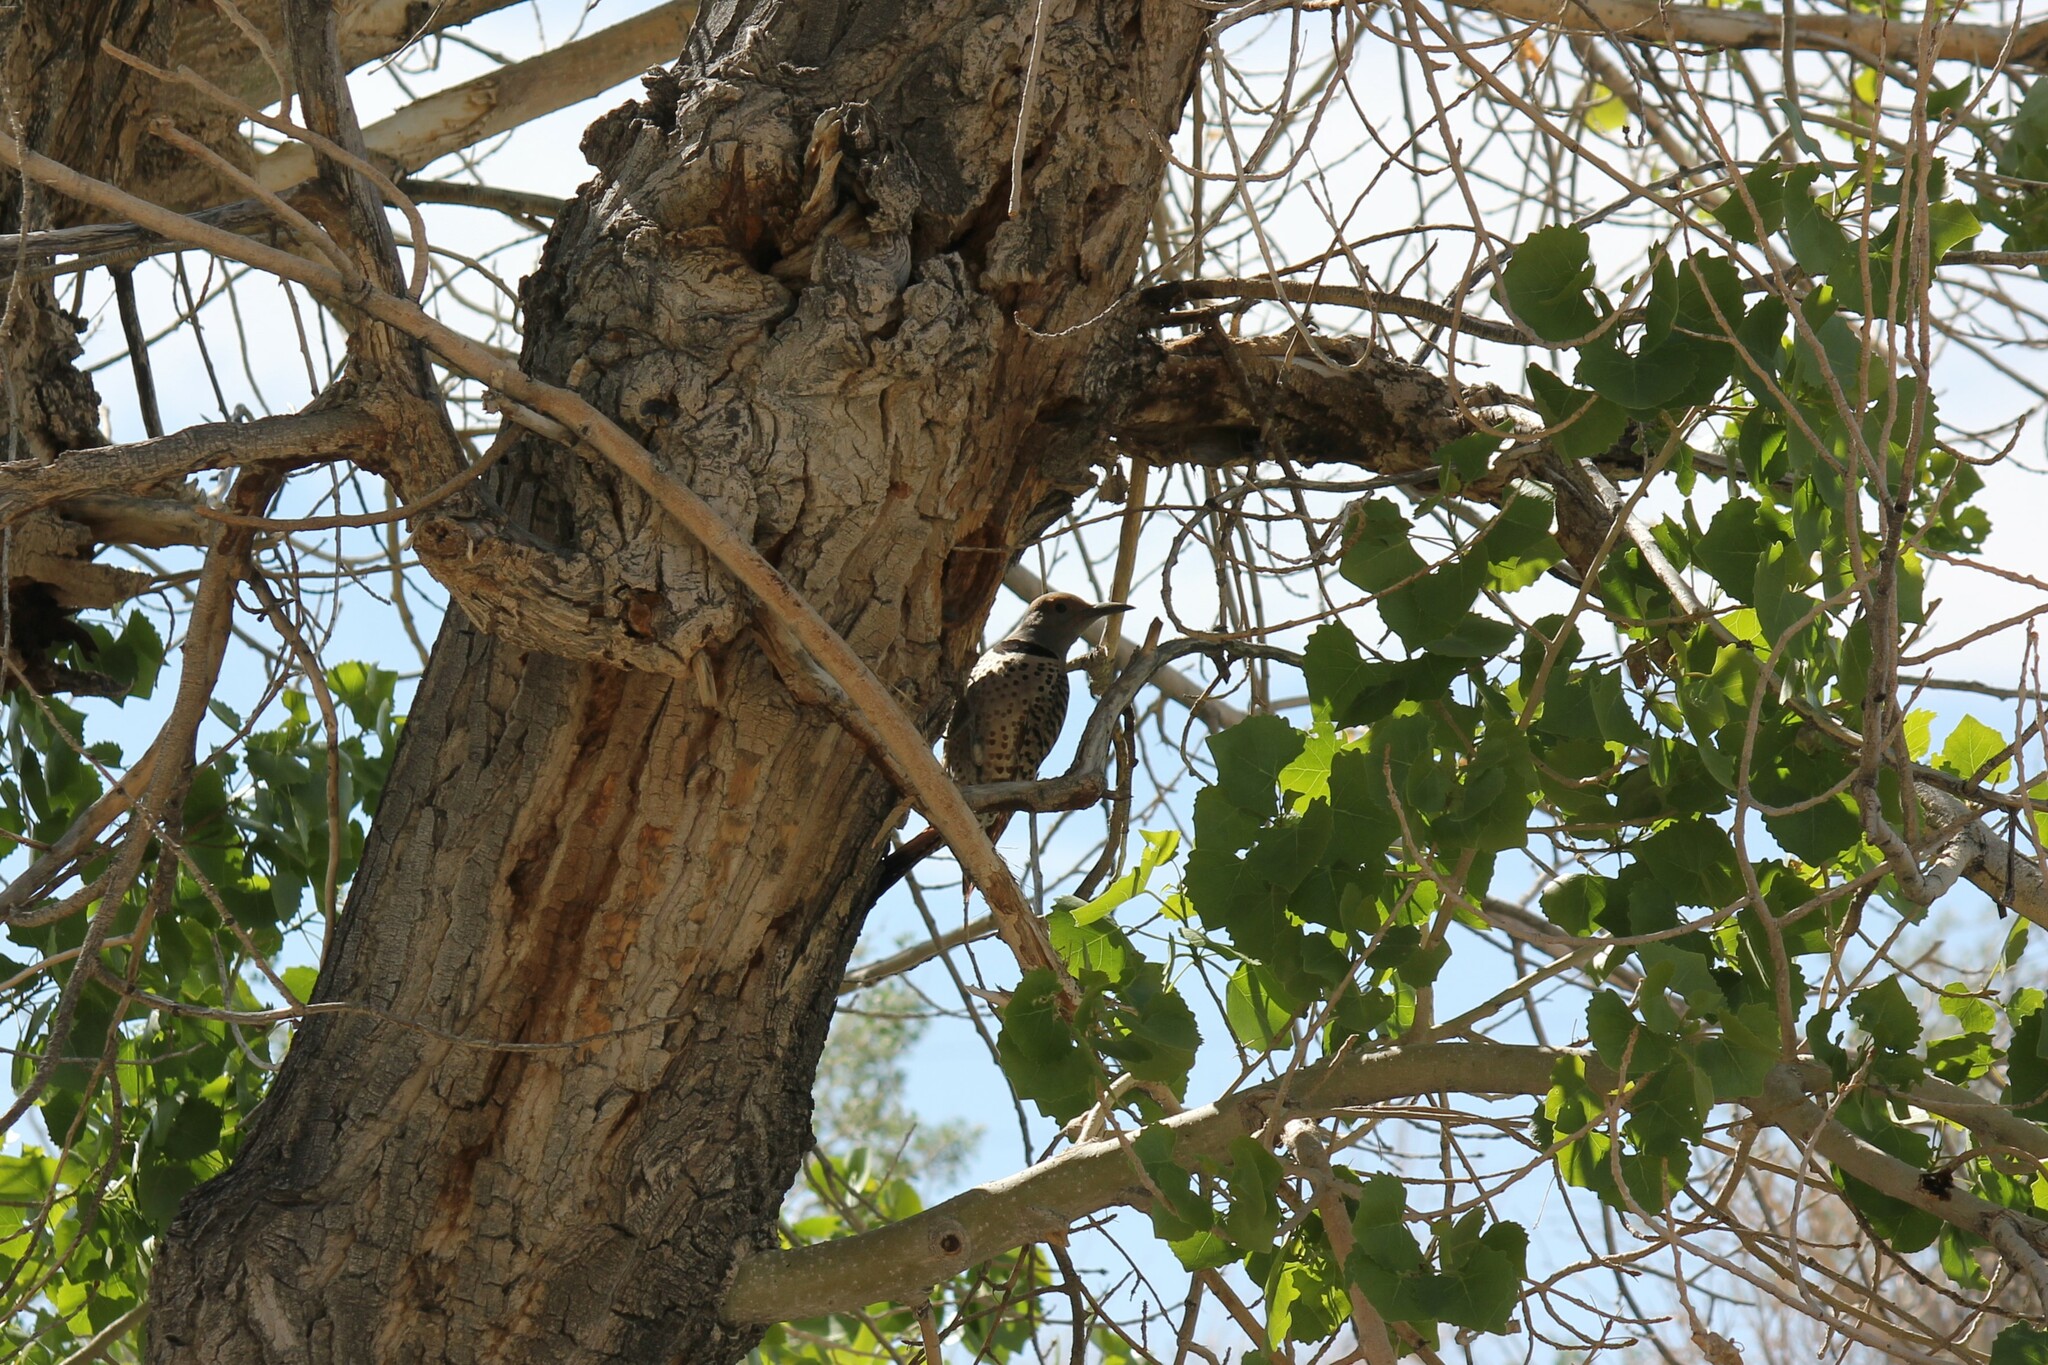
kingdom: Animalia
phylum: Chordata
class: Aves
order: Piciformes
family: Picidae
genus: Colaptes
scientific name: Colaptes auratus
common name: Northern flicker
